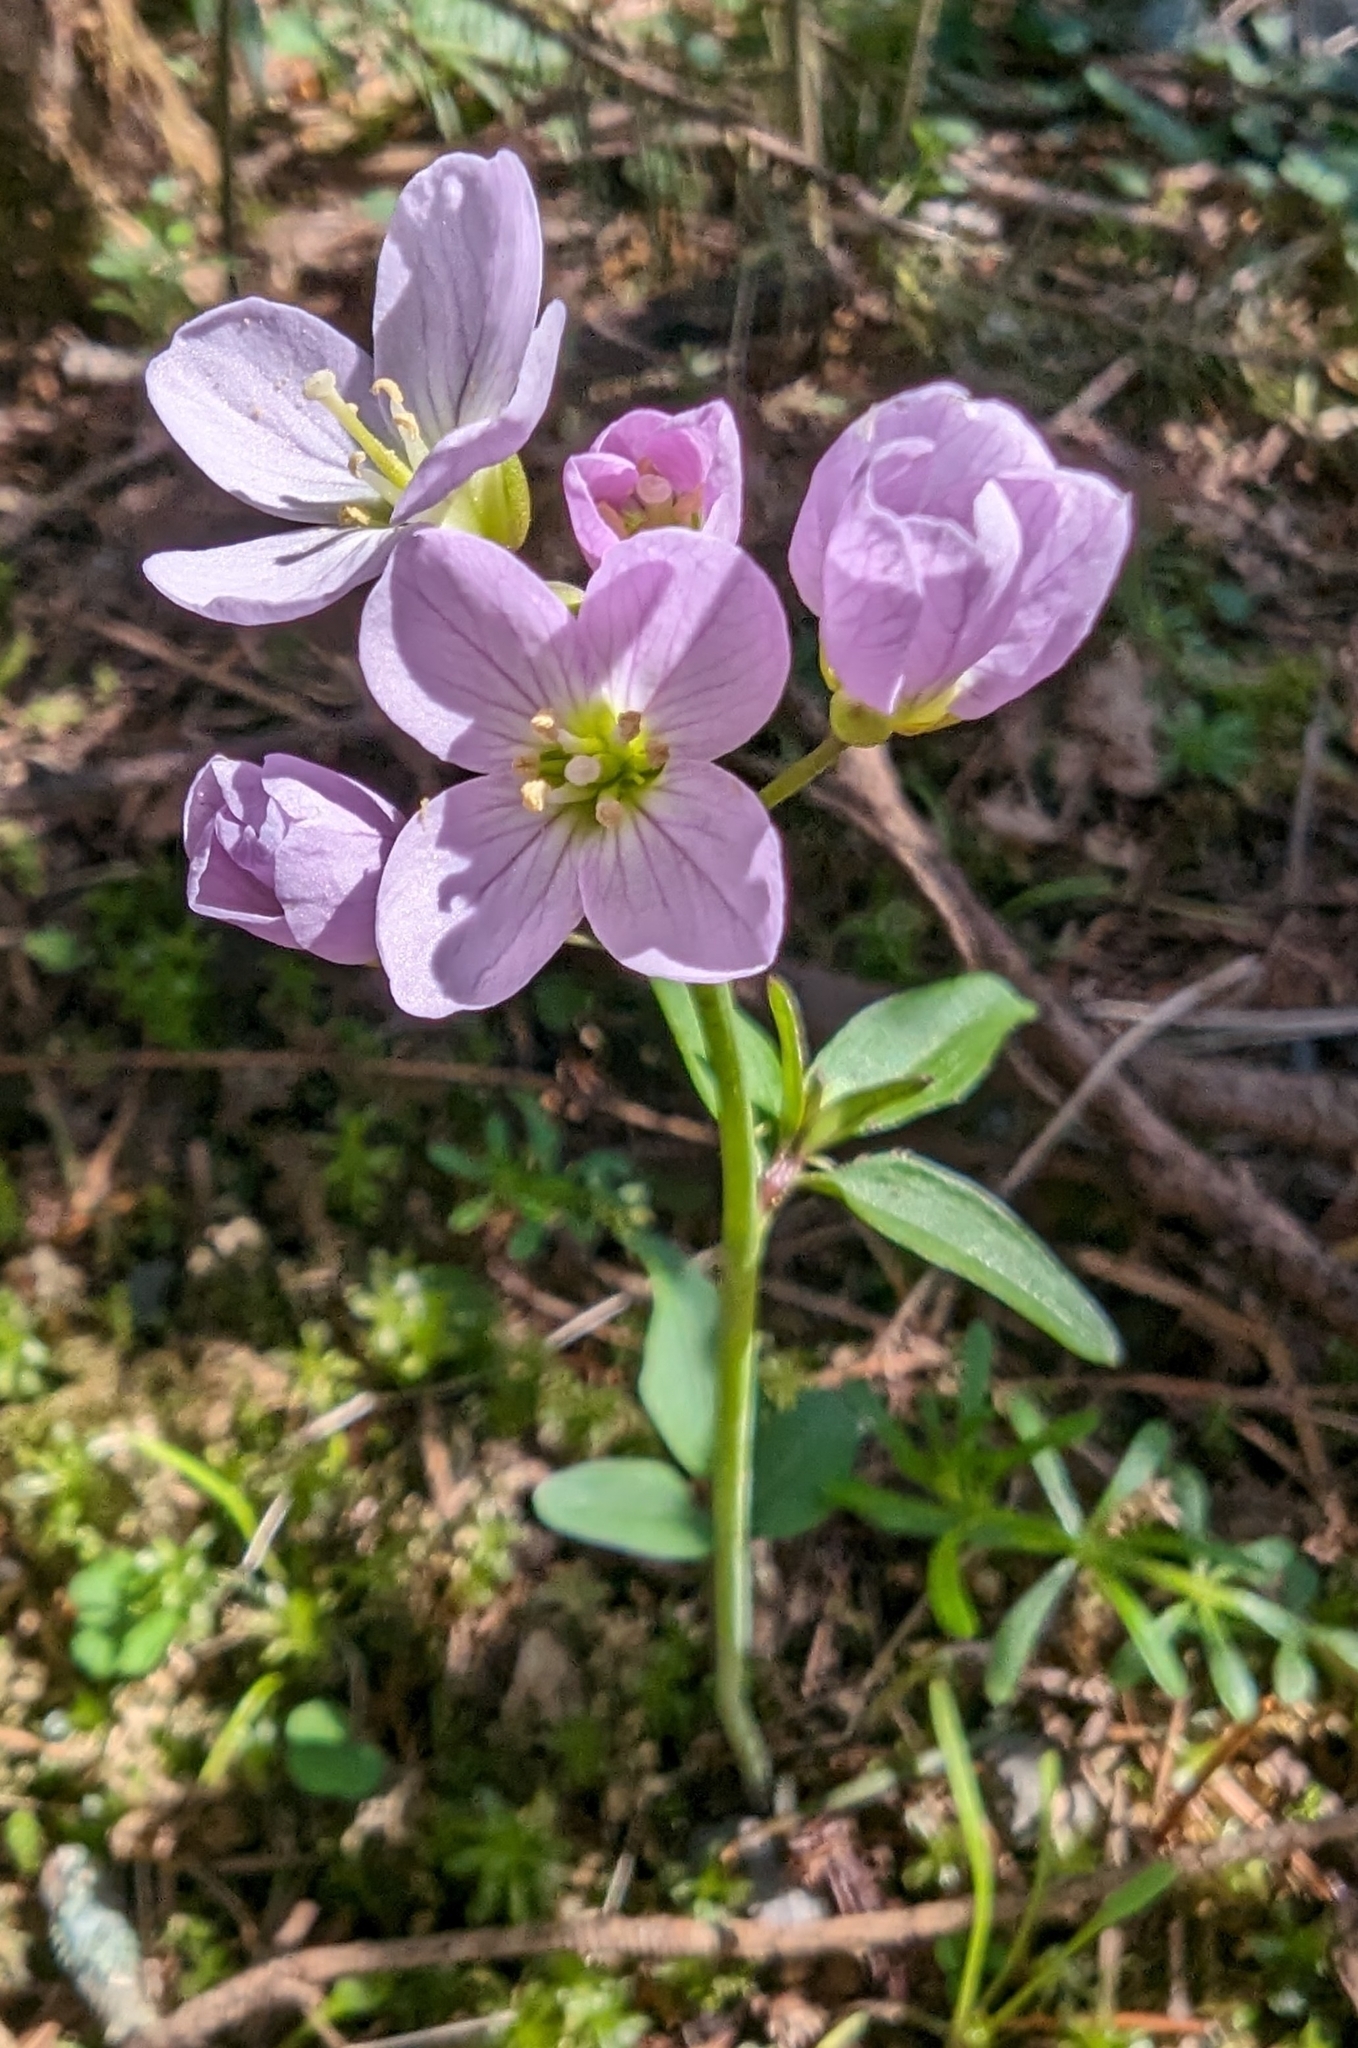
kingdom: Plantae
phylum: Tracheophyta
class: Magnoliopsida
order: Brassicales
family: Brassicaceae
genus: Cardamine
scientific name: Cardamine nuttallii
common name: Nuttall's toothwort
